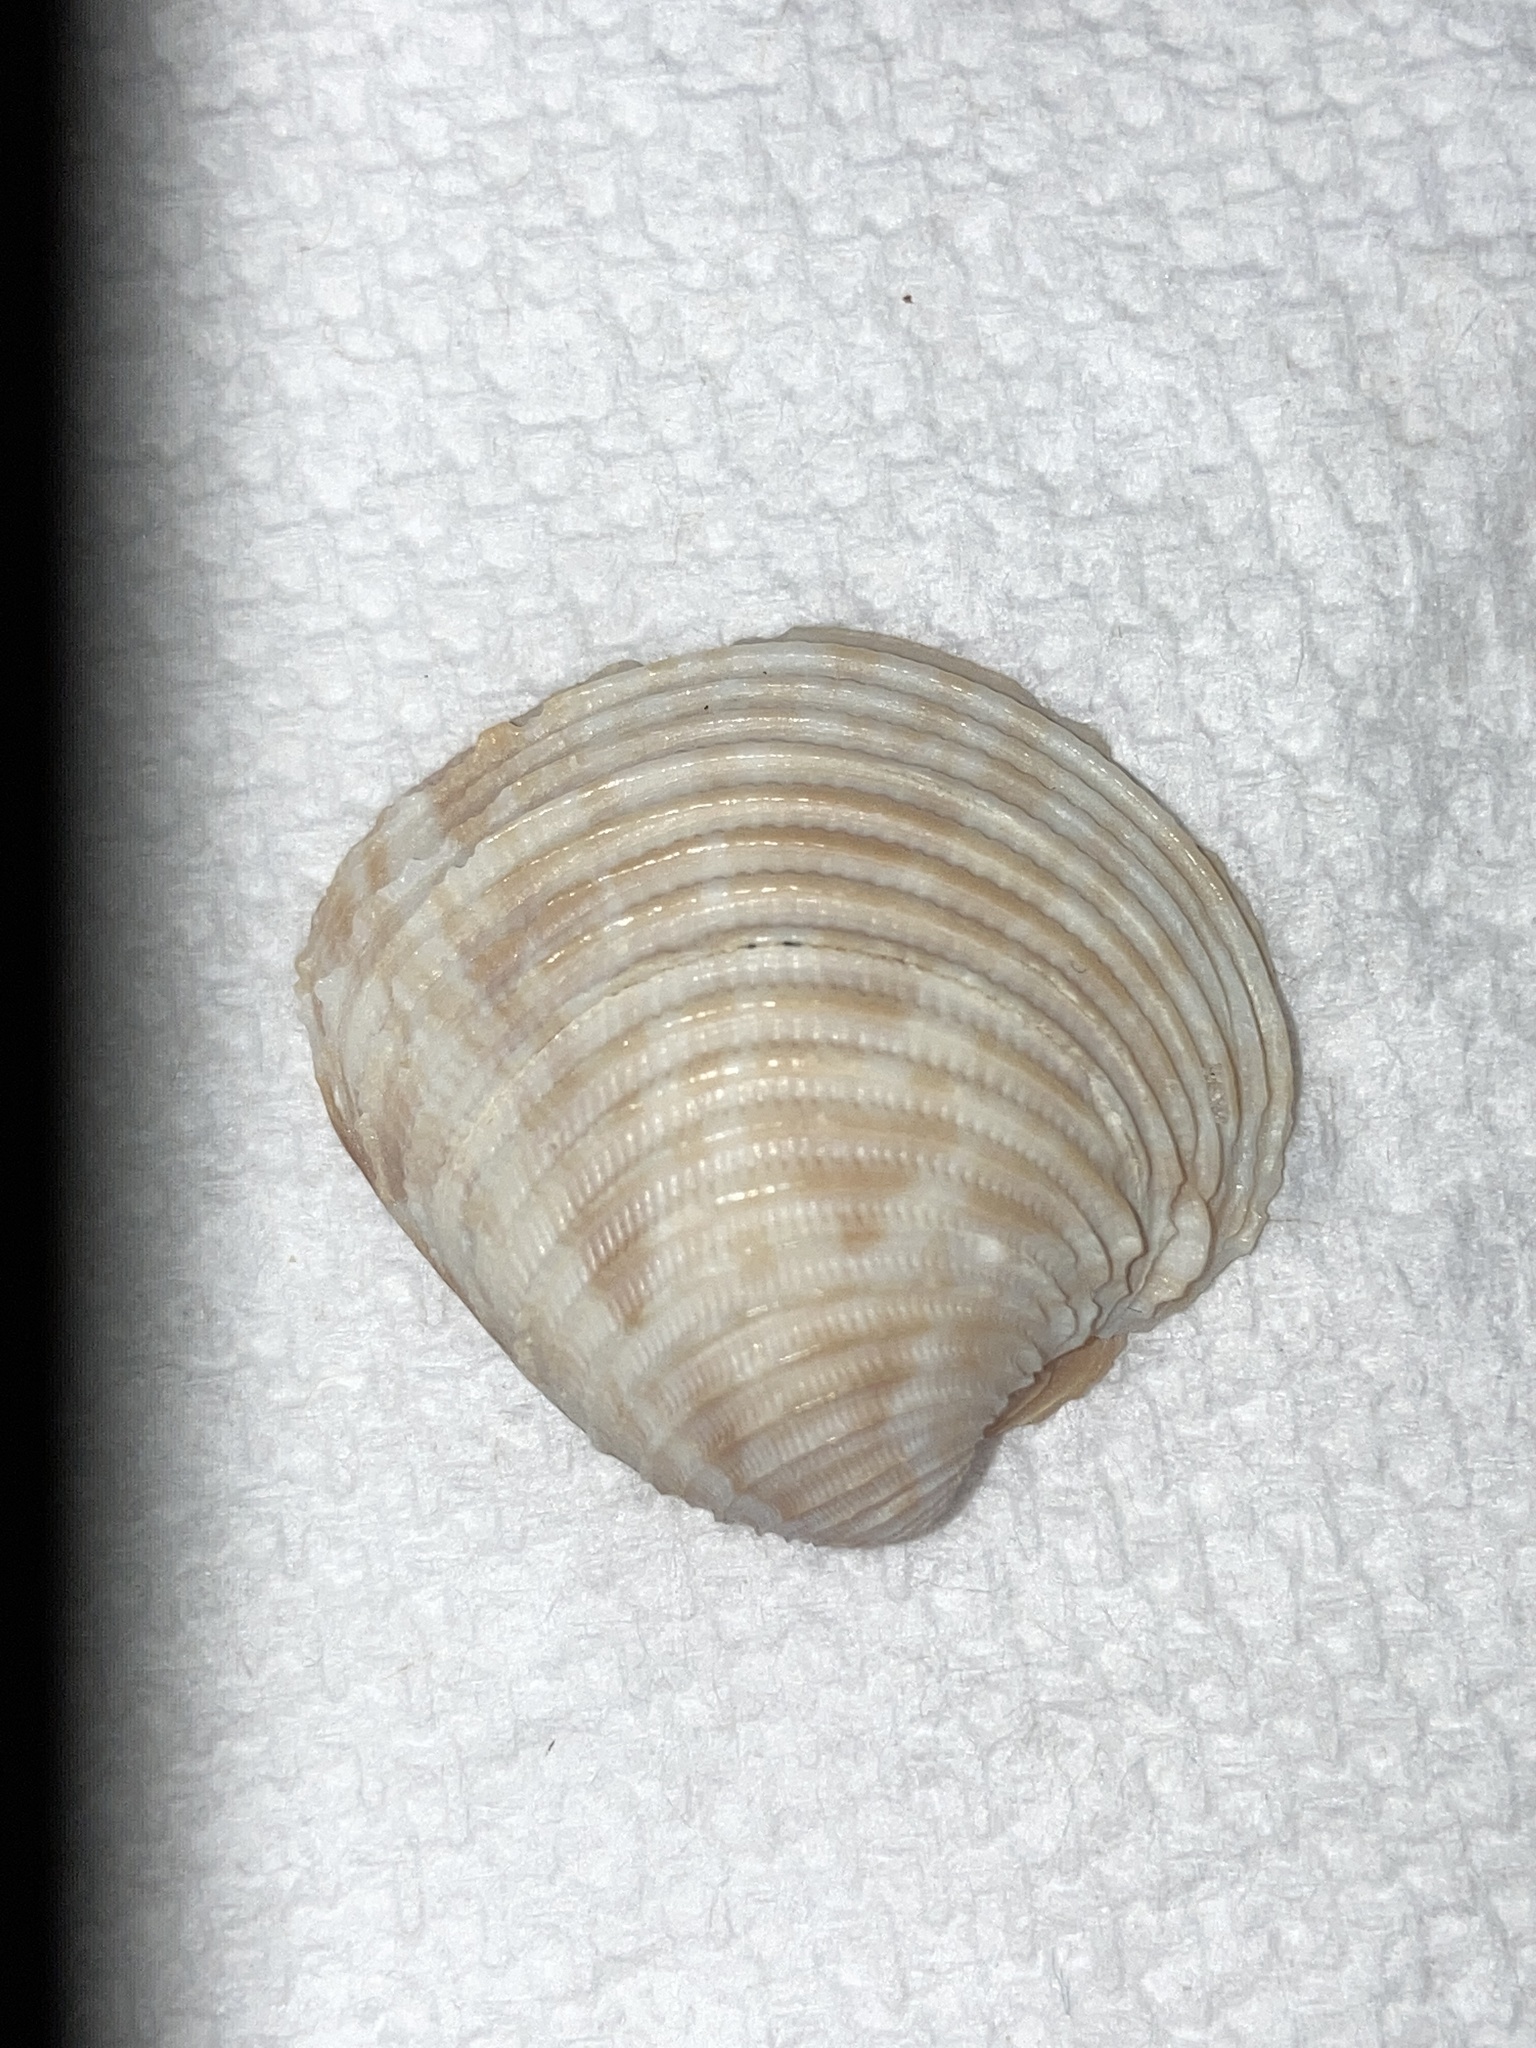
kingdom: Animalia
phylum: Mollusca
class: Bivalvia
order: Venerida
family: Veneridae
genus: Chionopsis
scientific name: Chionopsis intapurpurea
